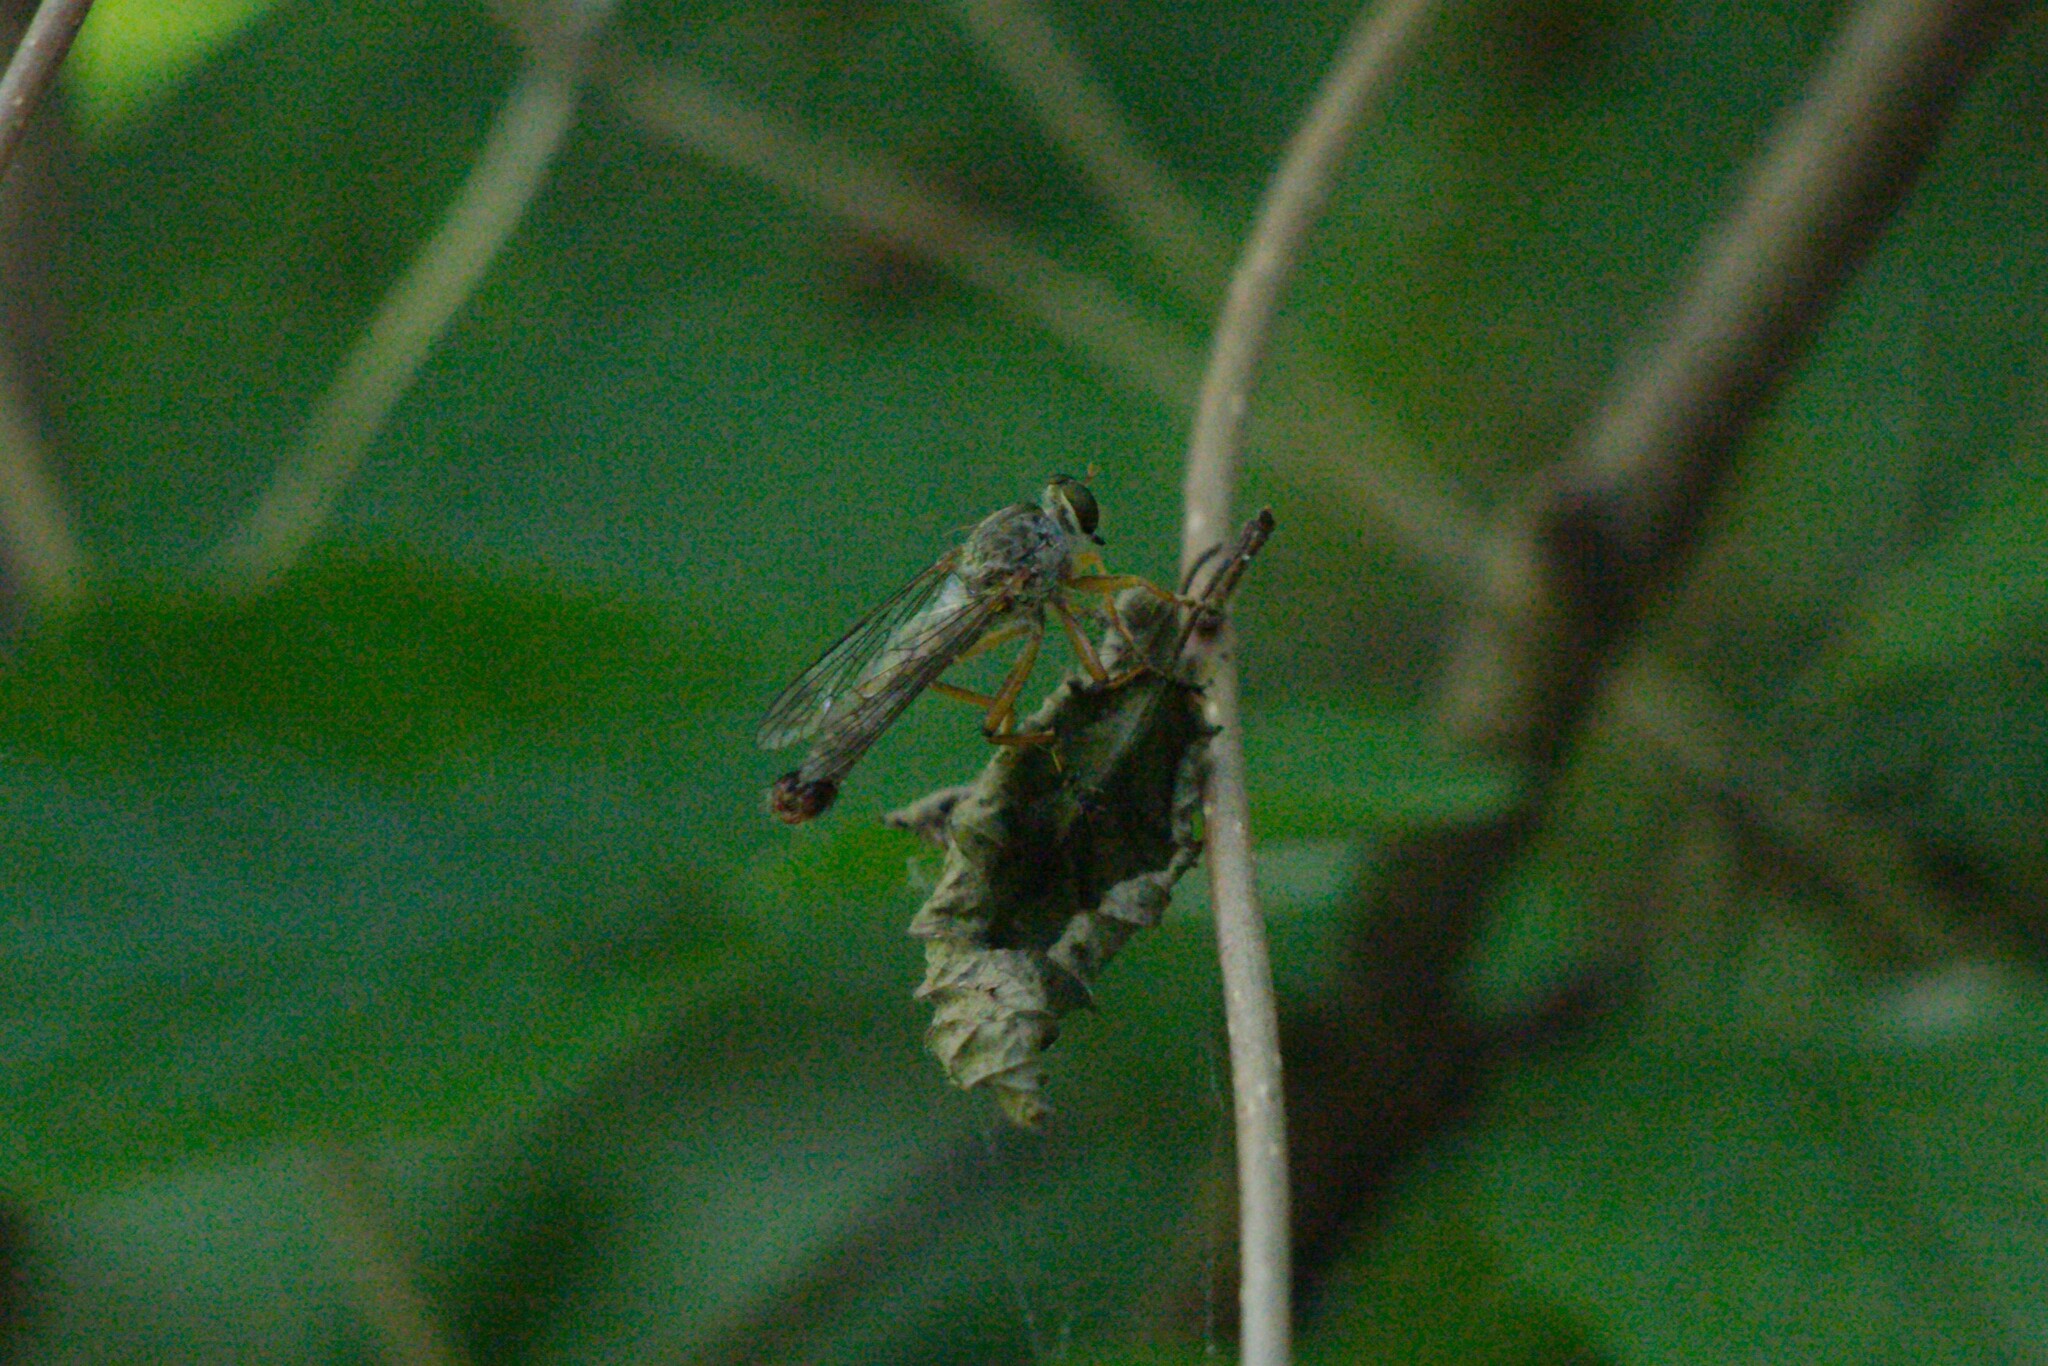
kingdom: Animalia
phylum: Arthropoda
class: Insecta
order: Diptera
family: Asilidae
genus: Aneomochtherus
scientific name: Aneomochtherus flavicornis
